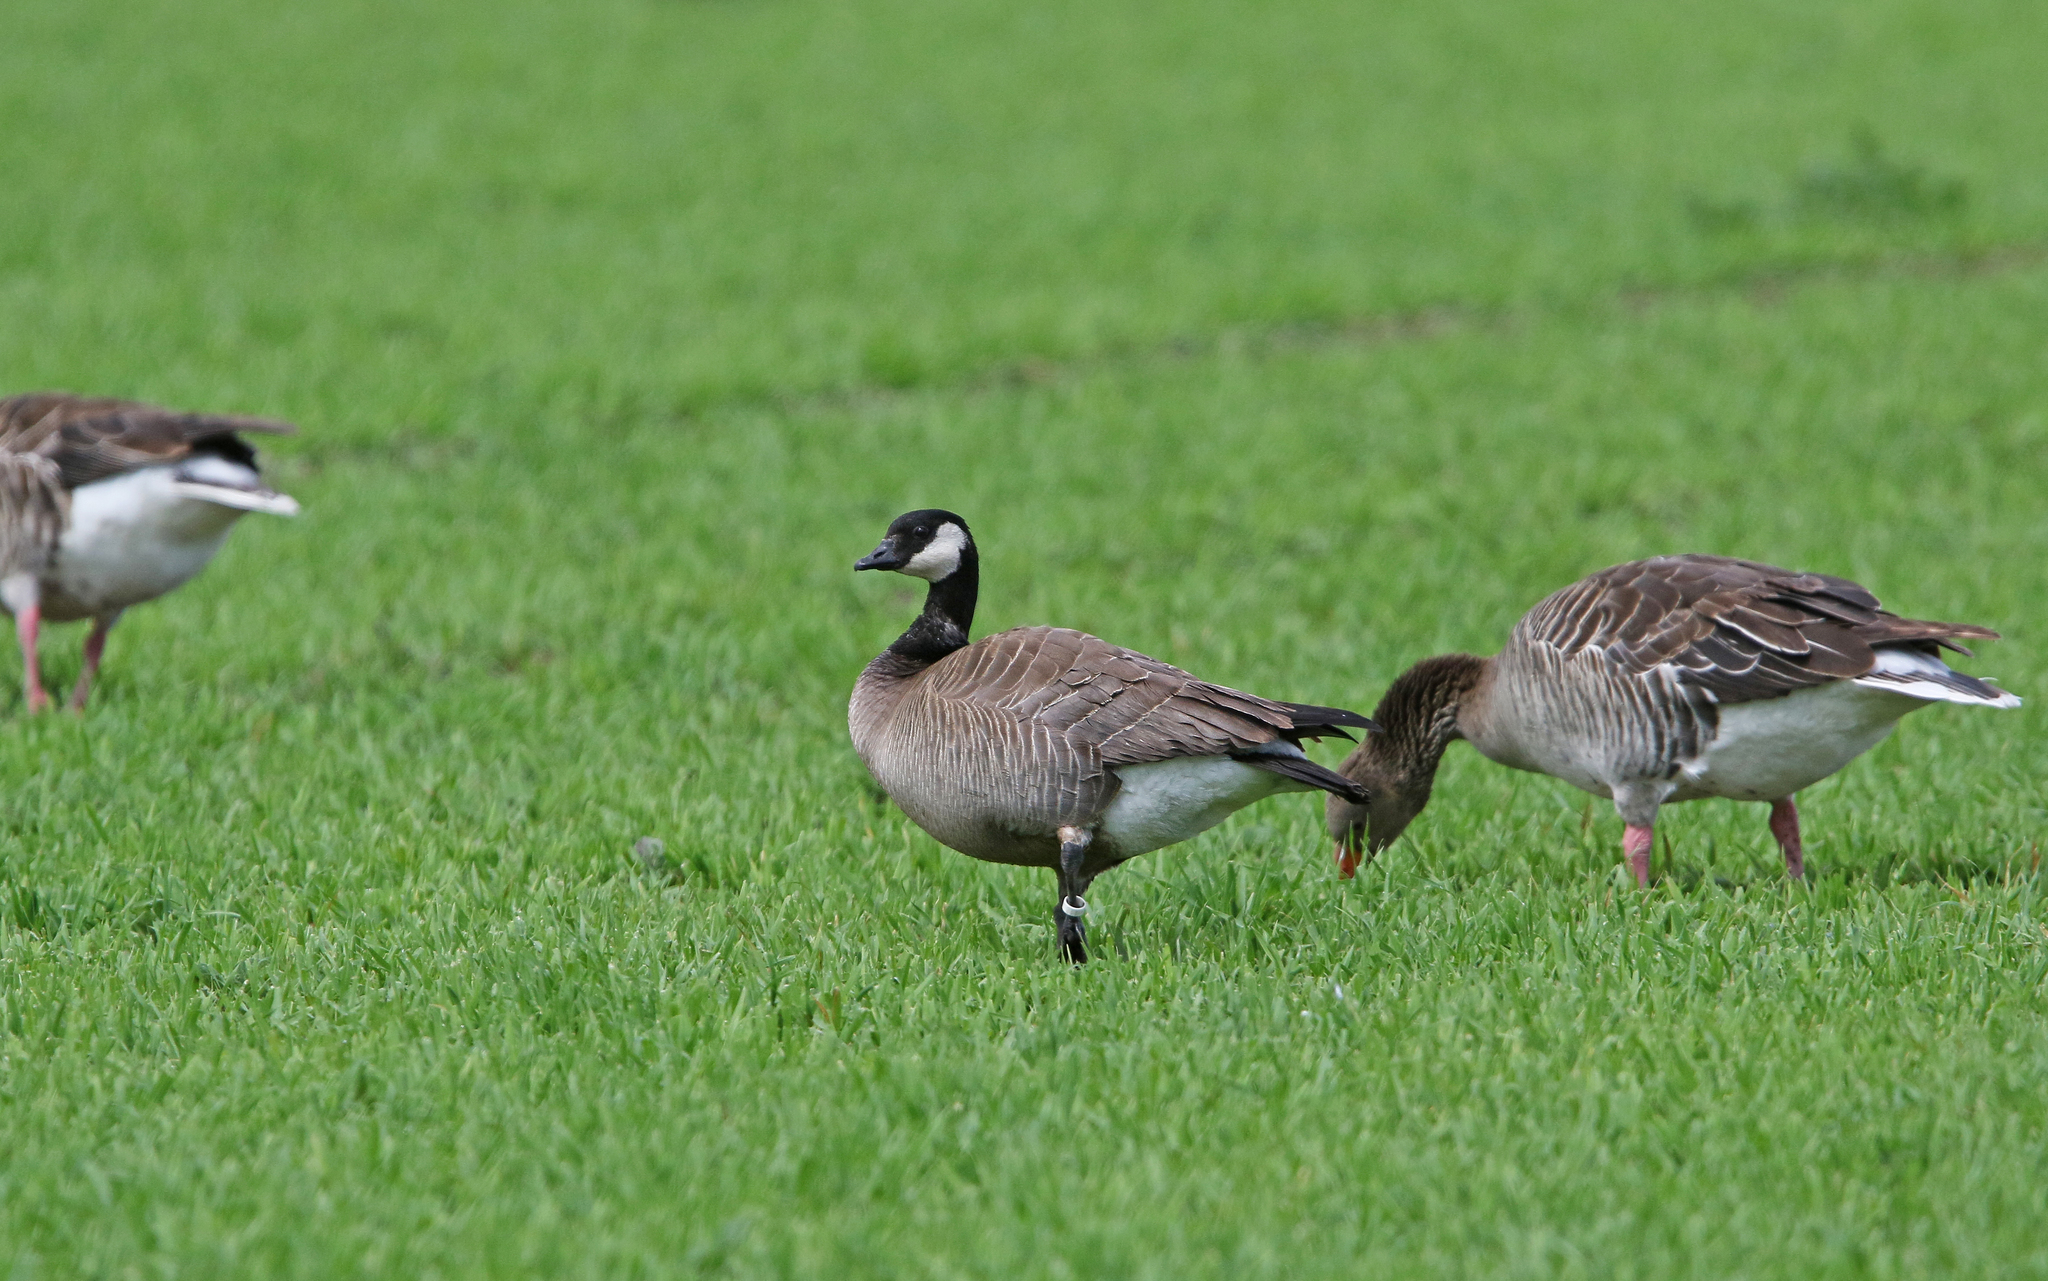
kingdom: Animalia
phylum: Chordata
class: Aves
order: Anseriformes
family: Anatidae
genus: Branta
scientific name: Branta hutchinsii
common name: Cackling goose
